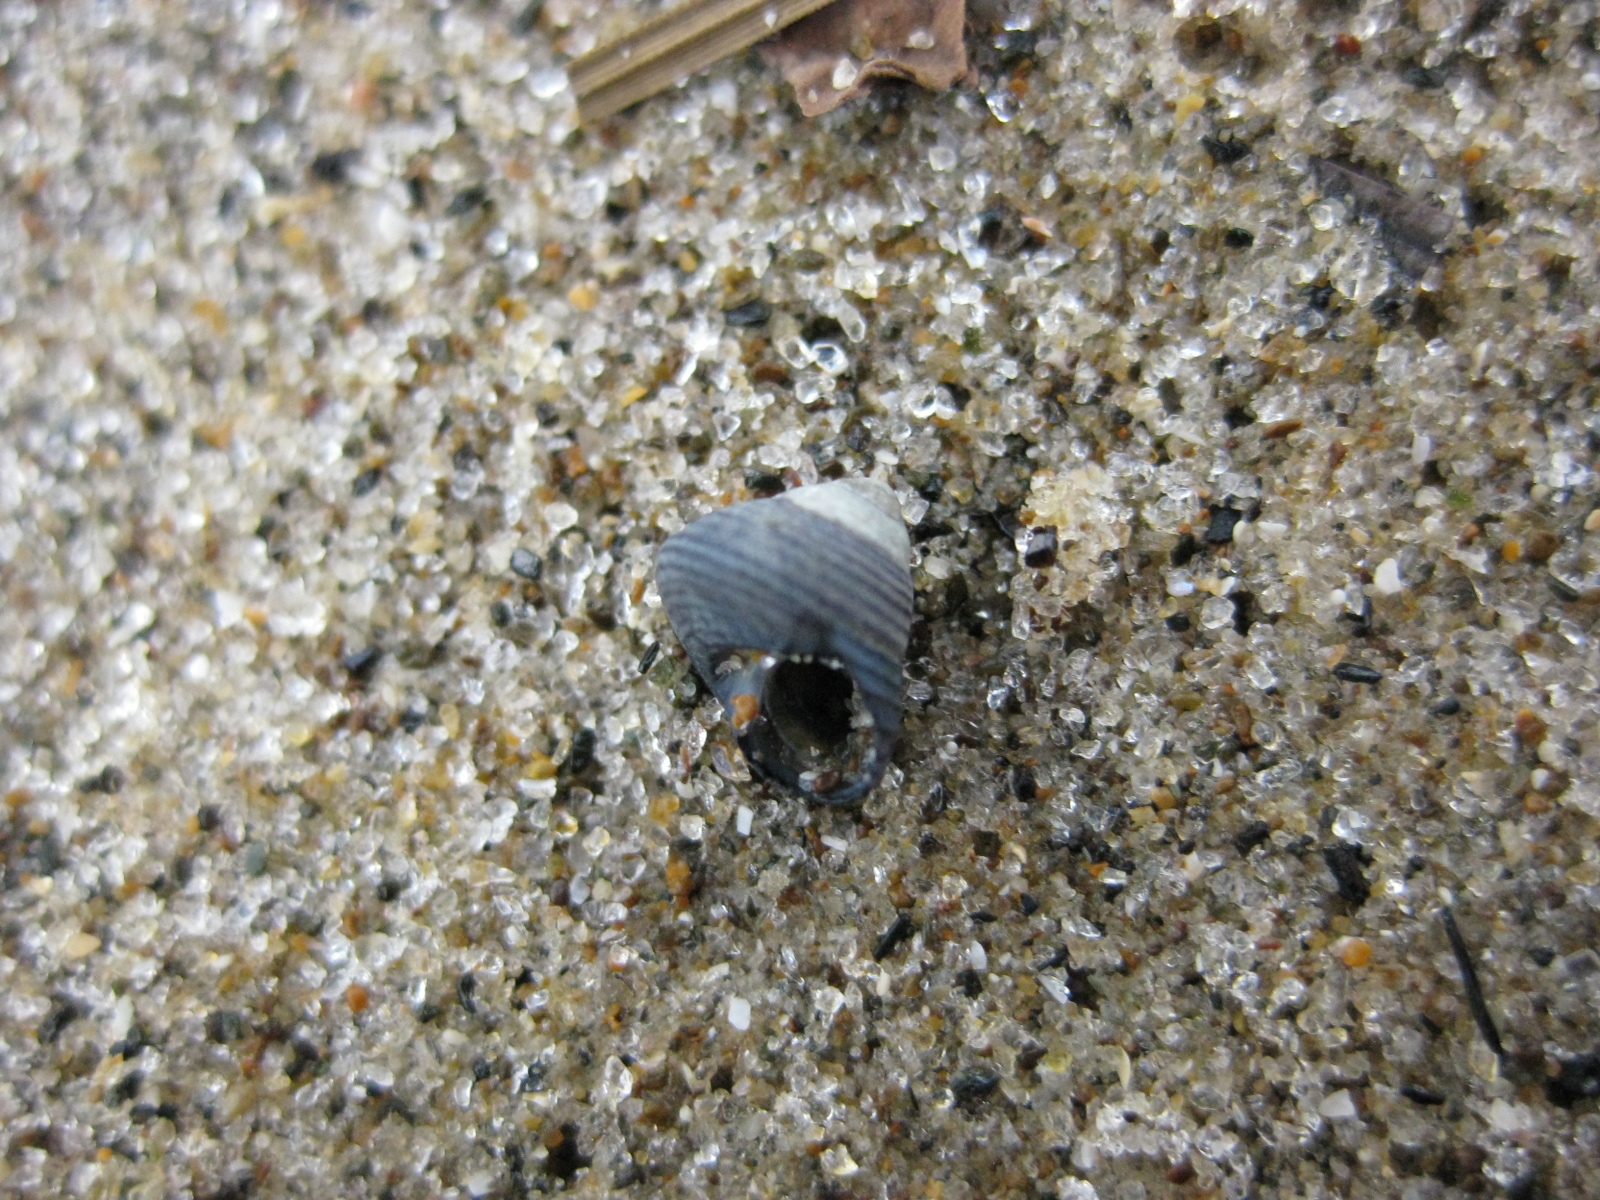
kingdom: Animalia
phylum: Mollusca
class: Gastropoda
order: Trochida
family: Trochidae
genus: Micrelenchus
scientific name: Micrelenchus huttonii
